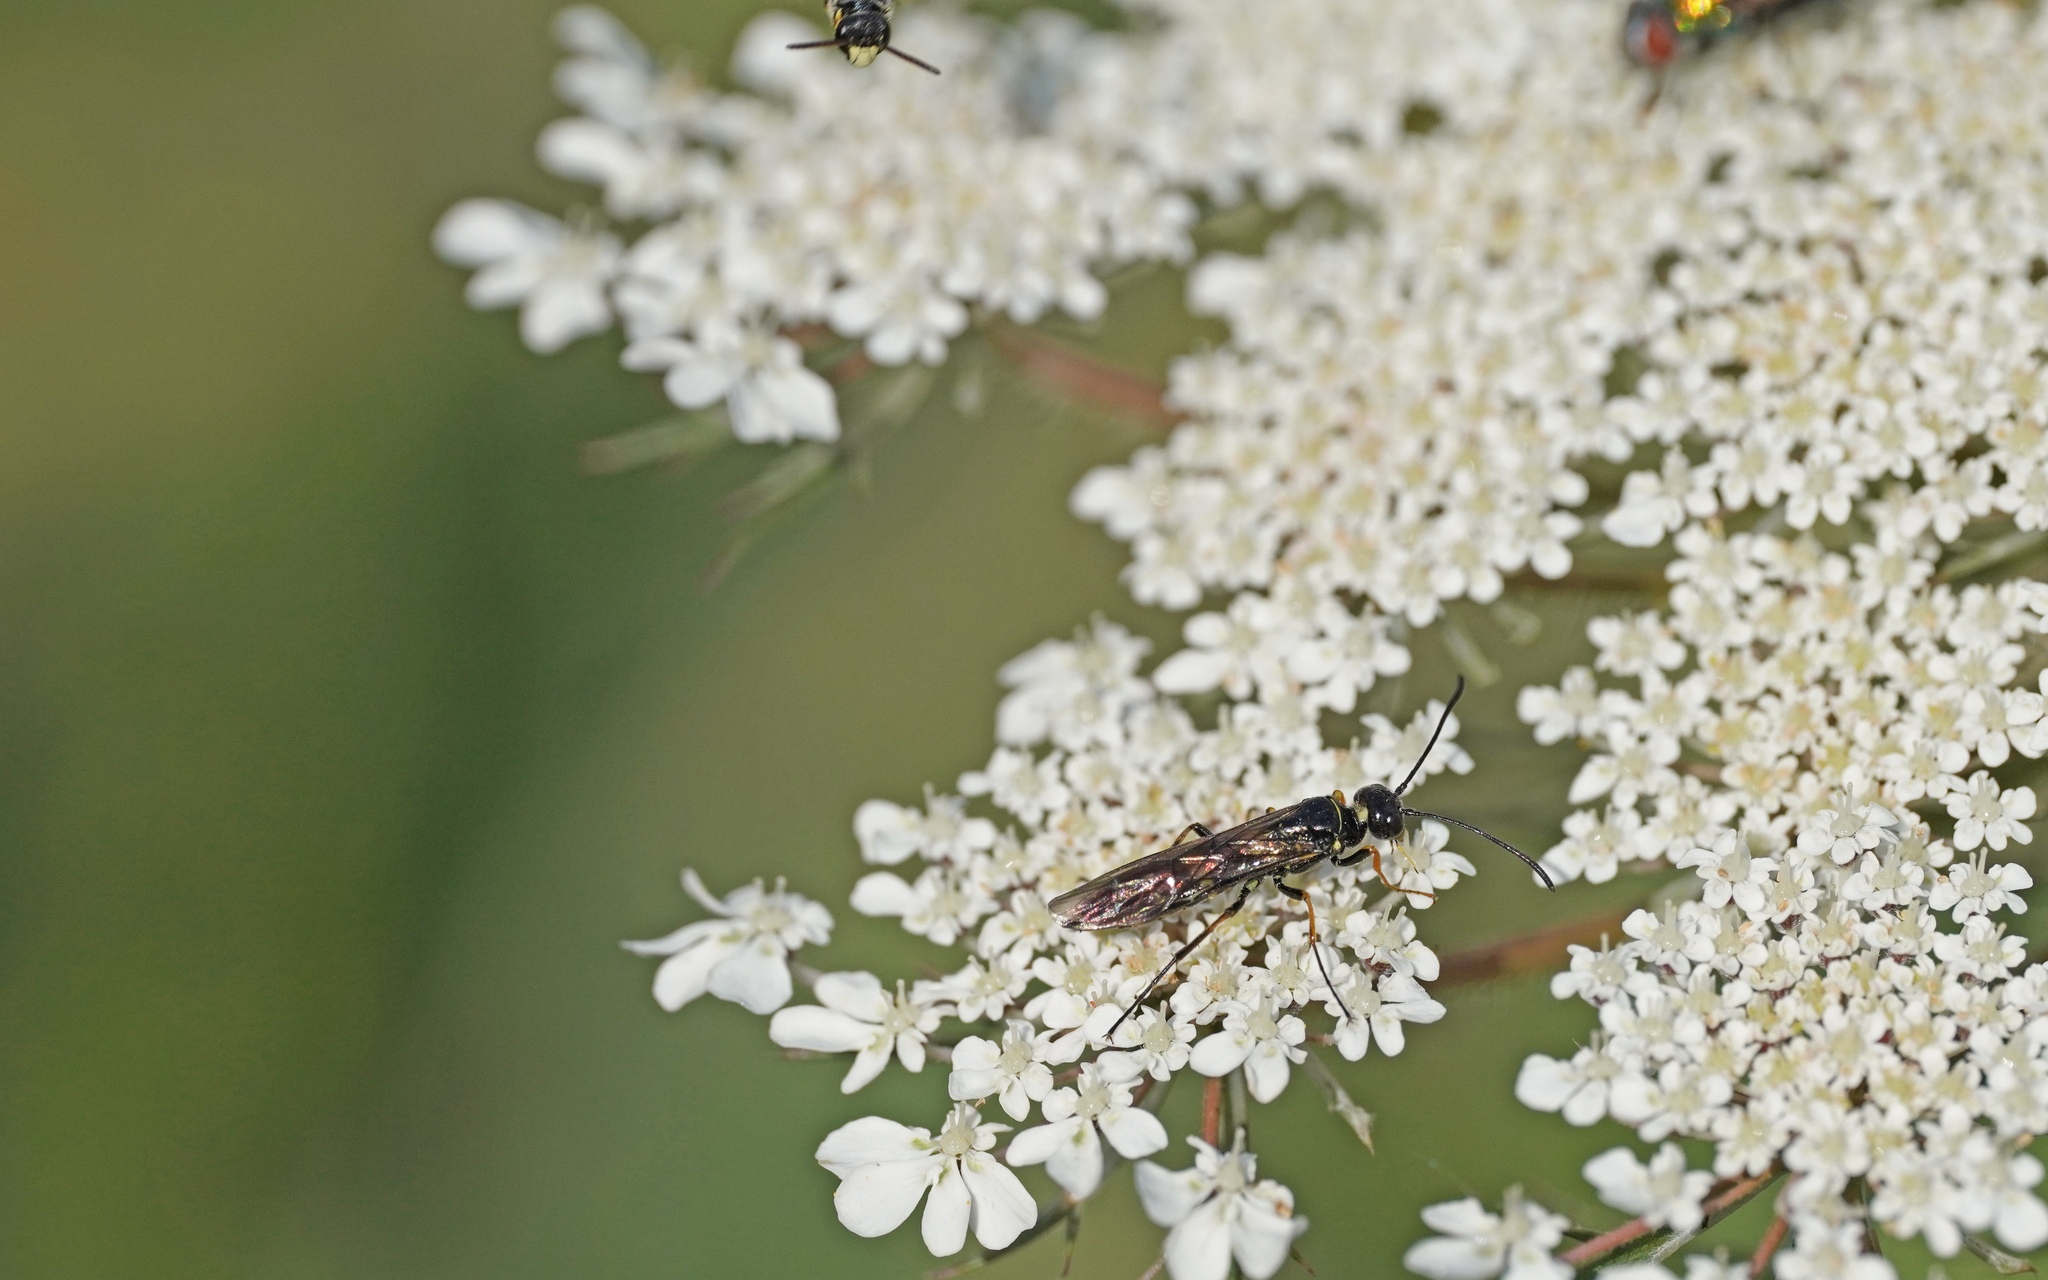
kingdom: Animalia
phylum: Arthropoda
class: Insecta
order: Hymenoptera
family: Cephidae
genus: Cephus
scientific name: Cephus pygmeus
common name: Wasp
